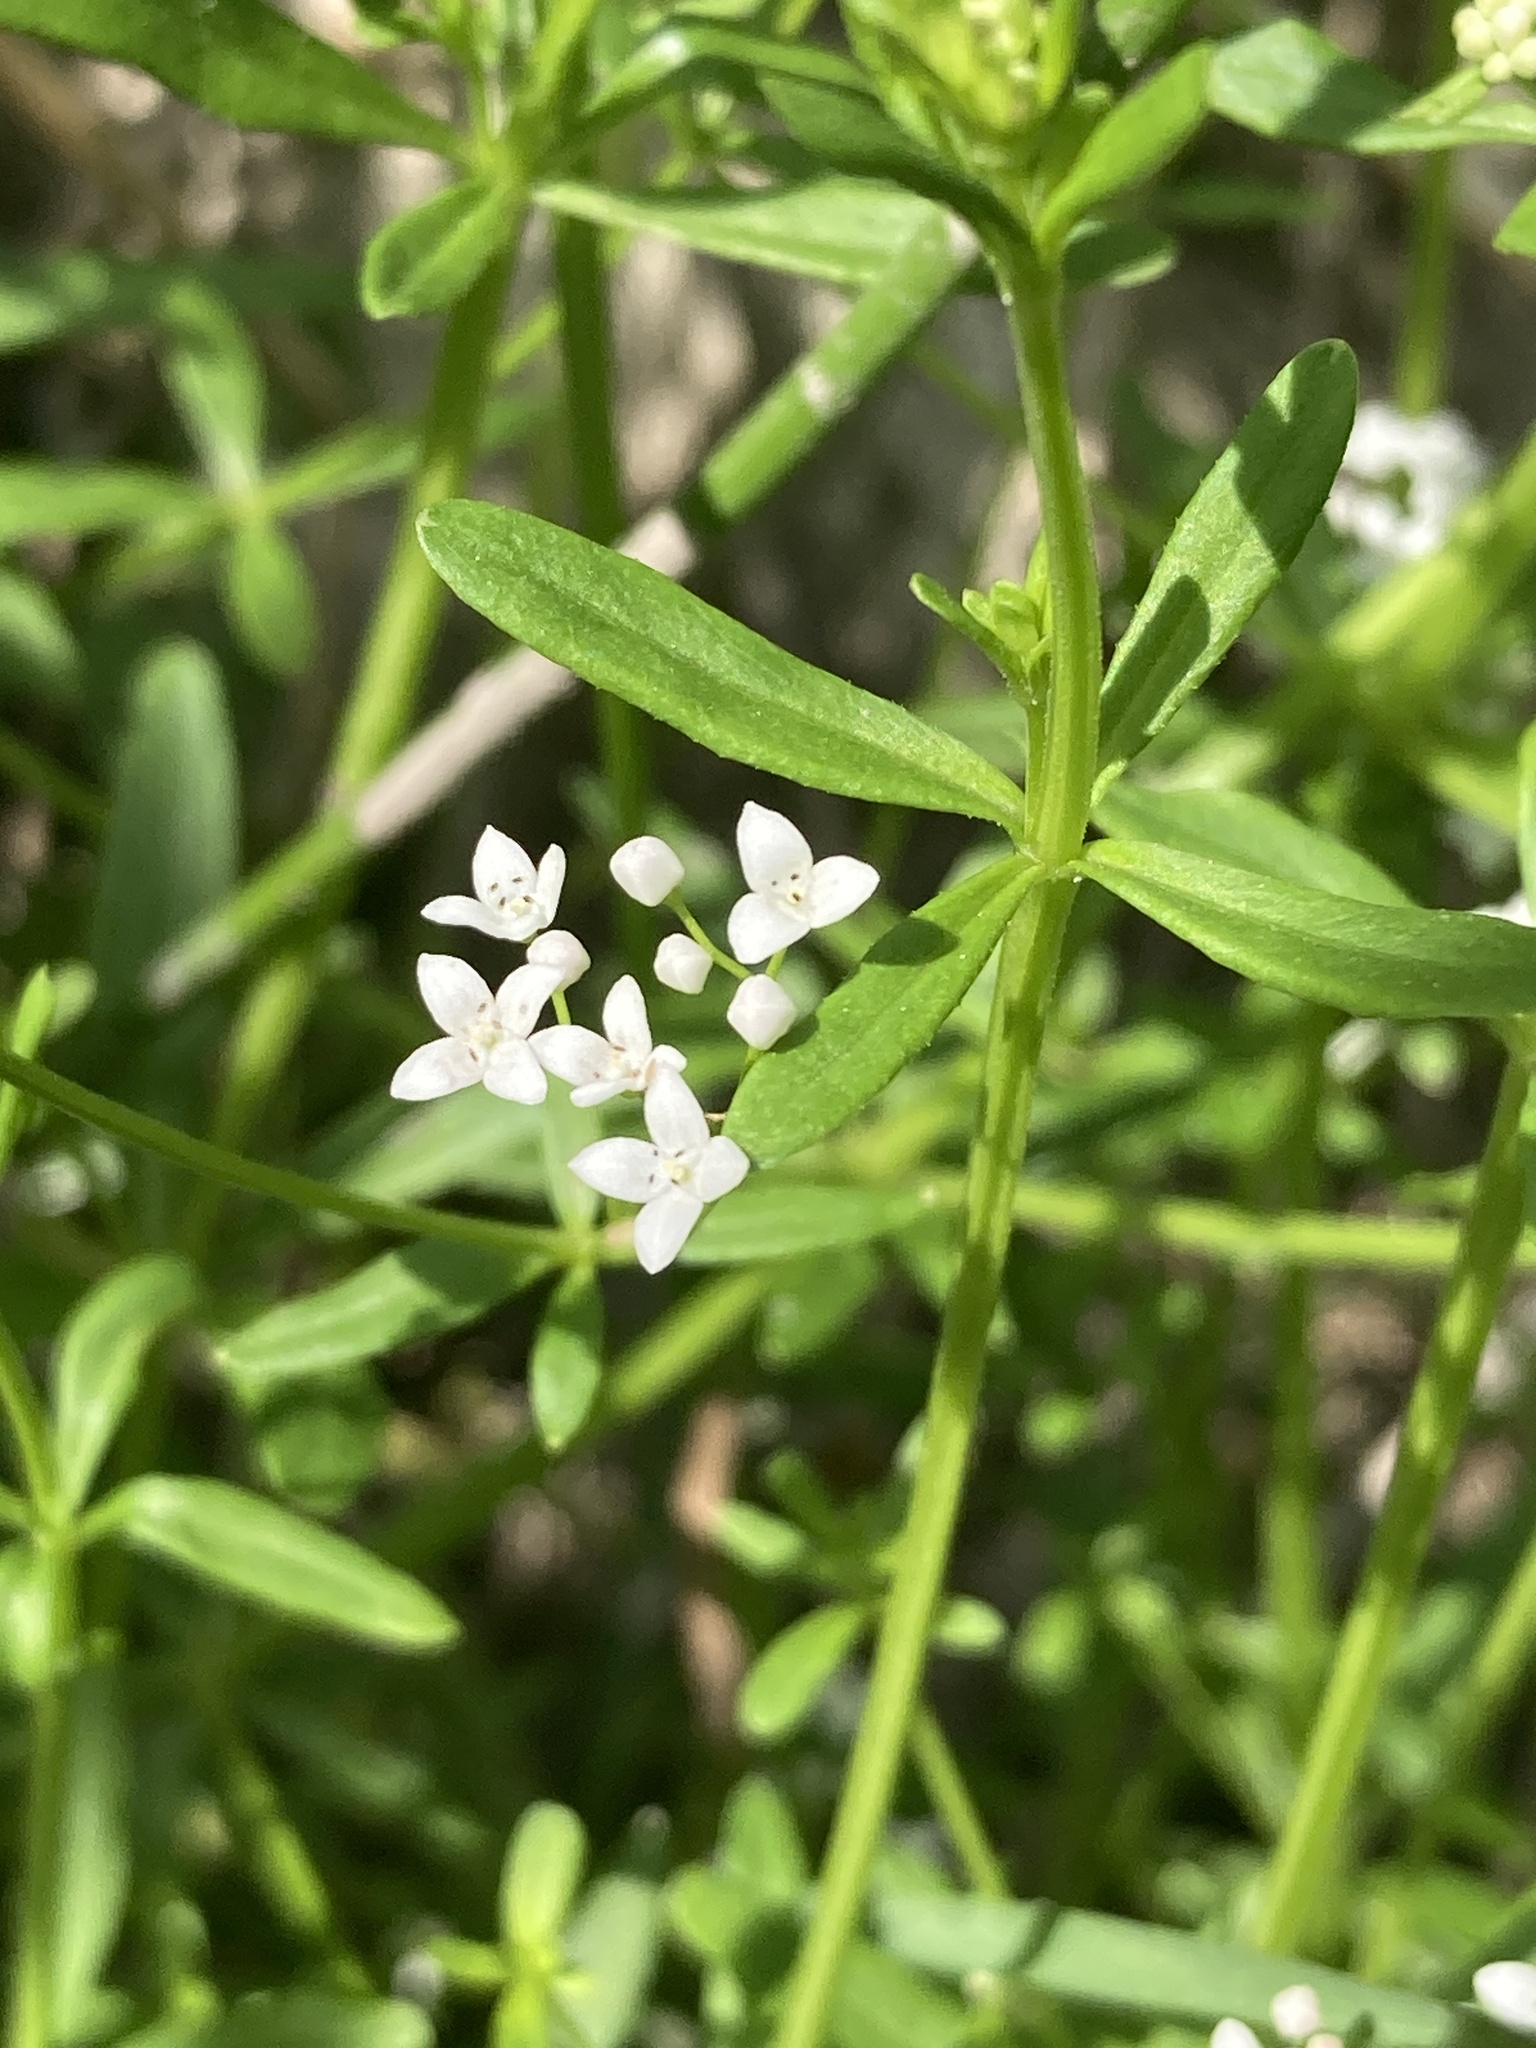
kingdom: Plantae
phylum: Tracheophyta
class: Magnoliopsida
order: Gentianales
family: Rubiaceae
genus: Galium
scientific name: Galium palustre
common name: Common marsh-bedstraw
